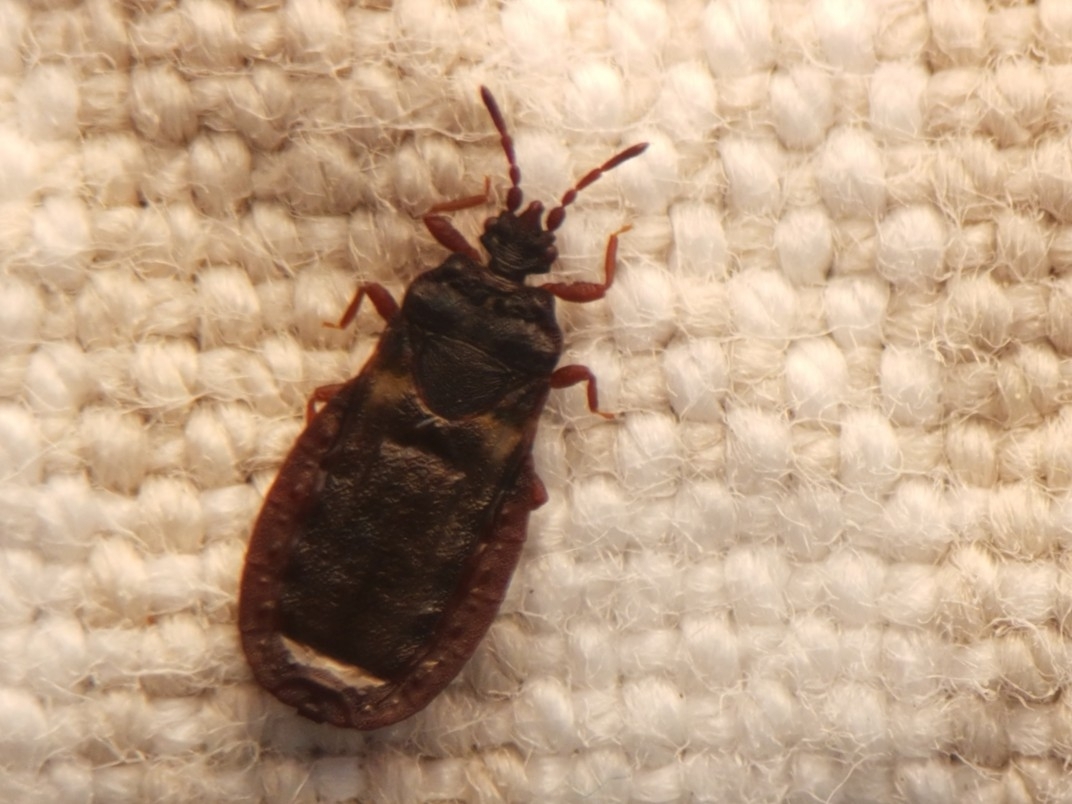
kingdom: Animalia
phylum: Arthropoda
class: Insecta
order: Hemiptera
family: Aradidae
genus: Aneurus
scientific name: Aneurus avenius
